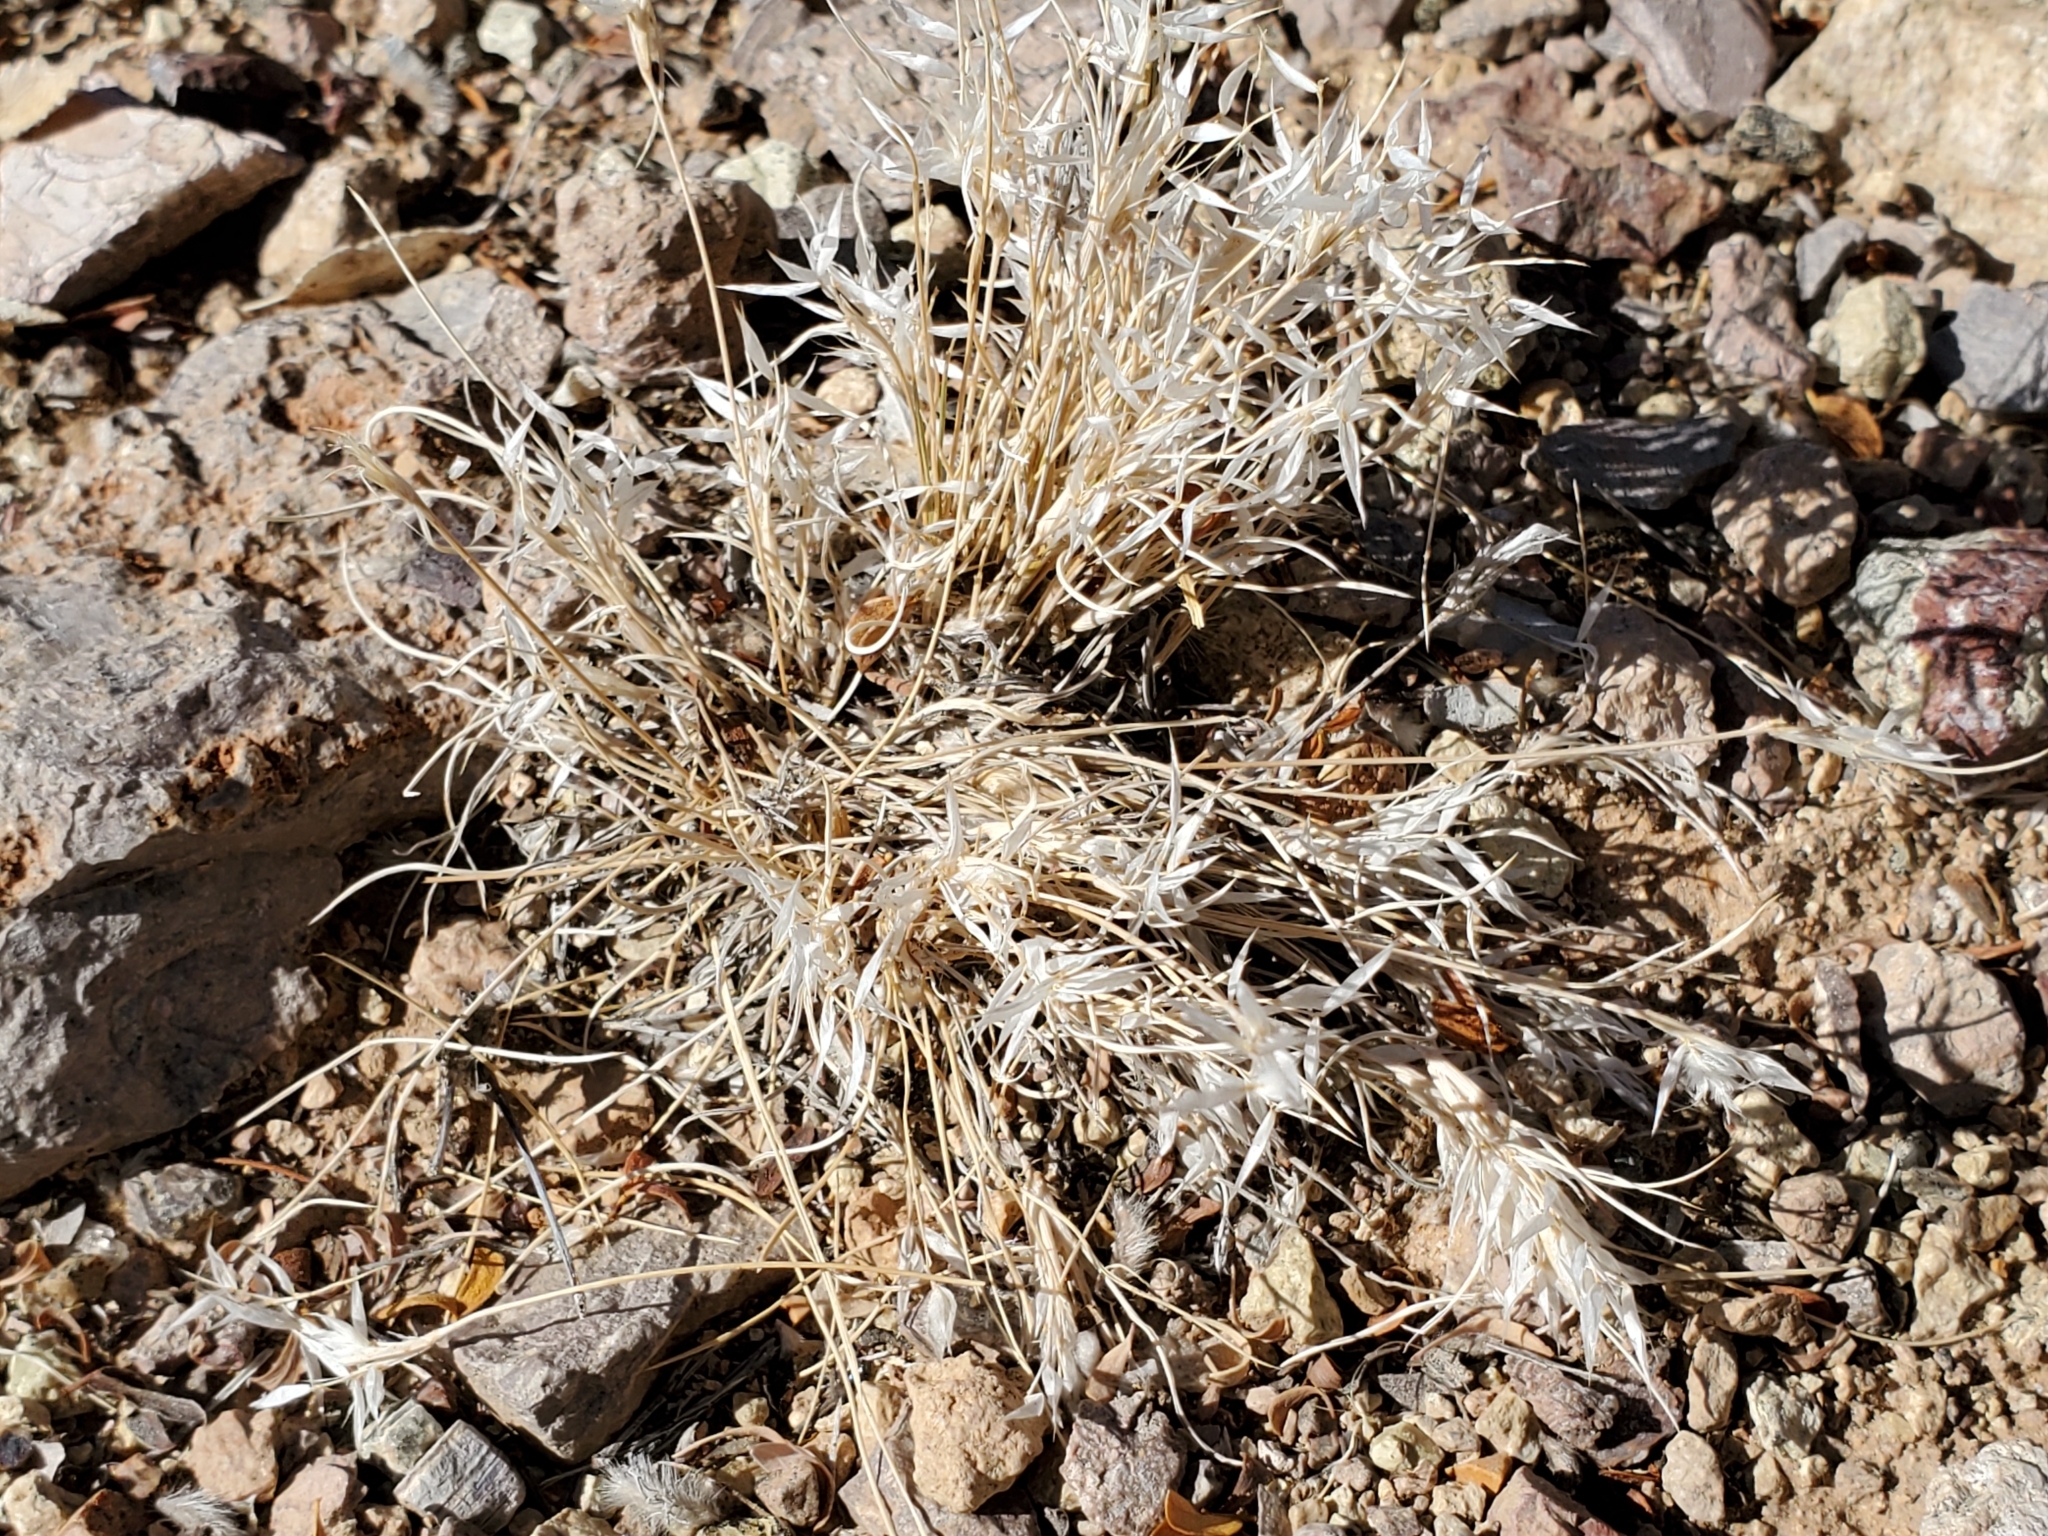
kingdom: Plantae
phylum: Tracheophyta
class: Liliopsida
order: Poales
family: Poaceae
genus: Dasyochloa
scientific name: Dasyochloa pulchella
